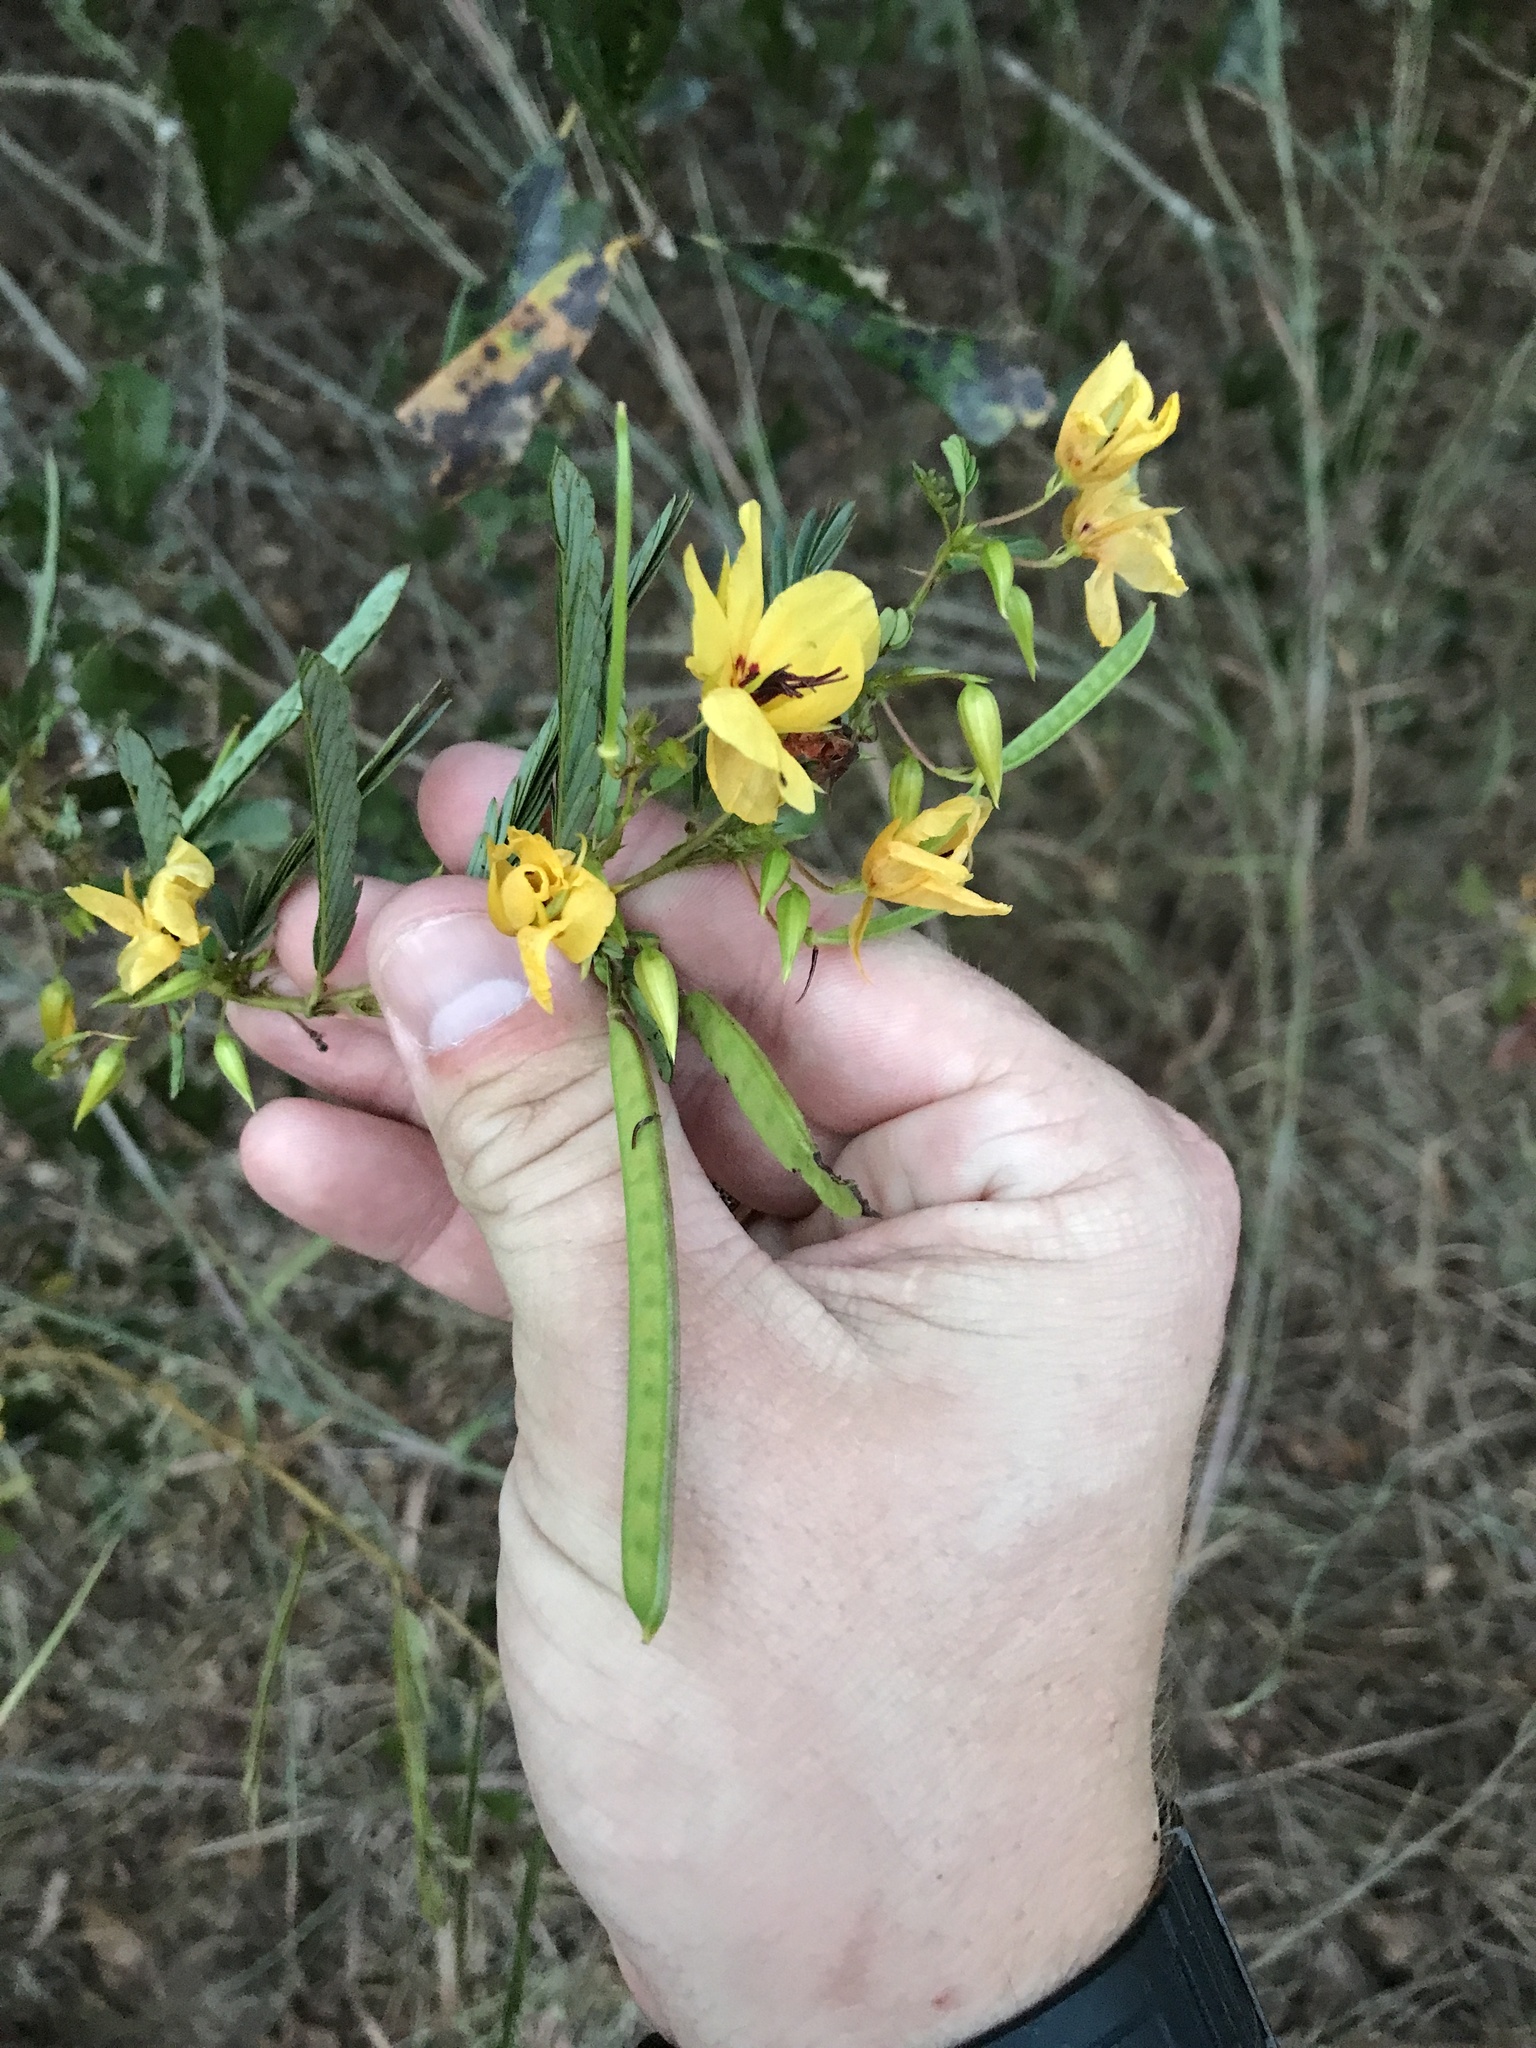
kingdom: Plantae
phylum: Tracheophyta
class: Magnoliopsida
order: Fabales
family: Fabaceae
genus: Chamaecrista
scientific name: Chamaecrista fasciculata
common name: Golden cassia
